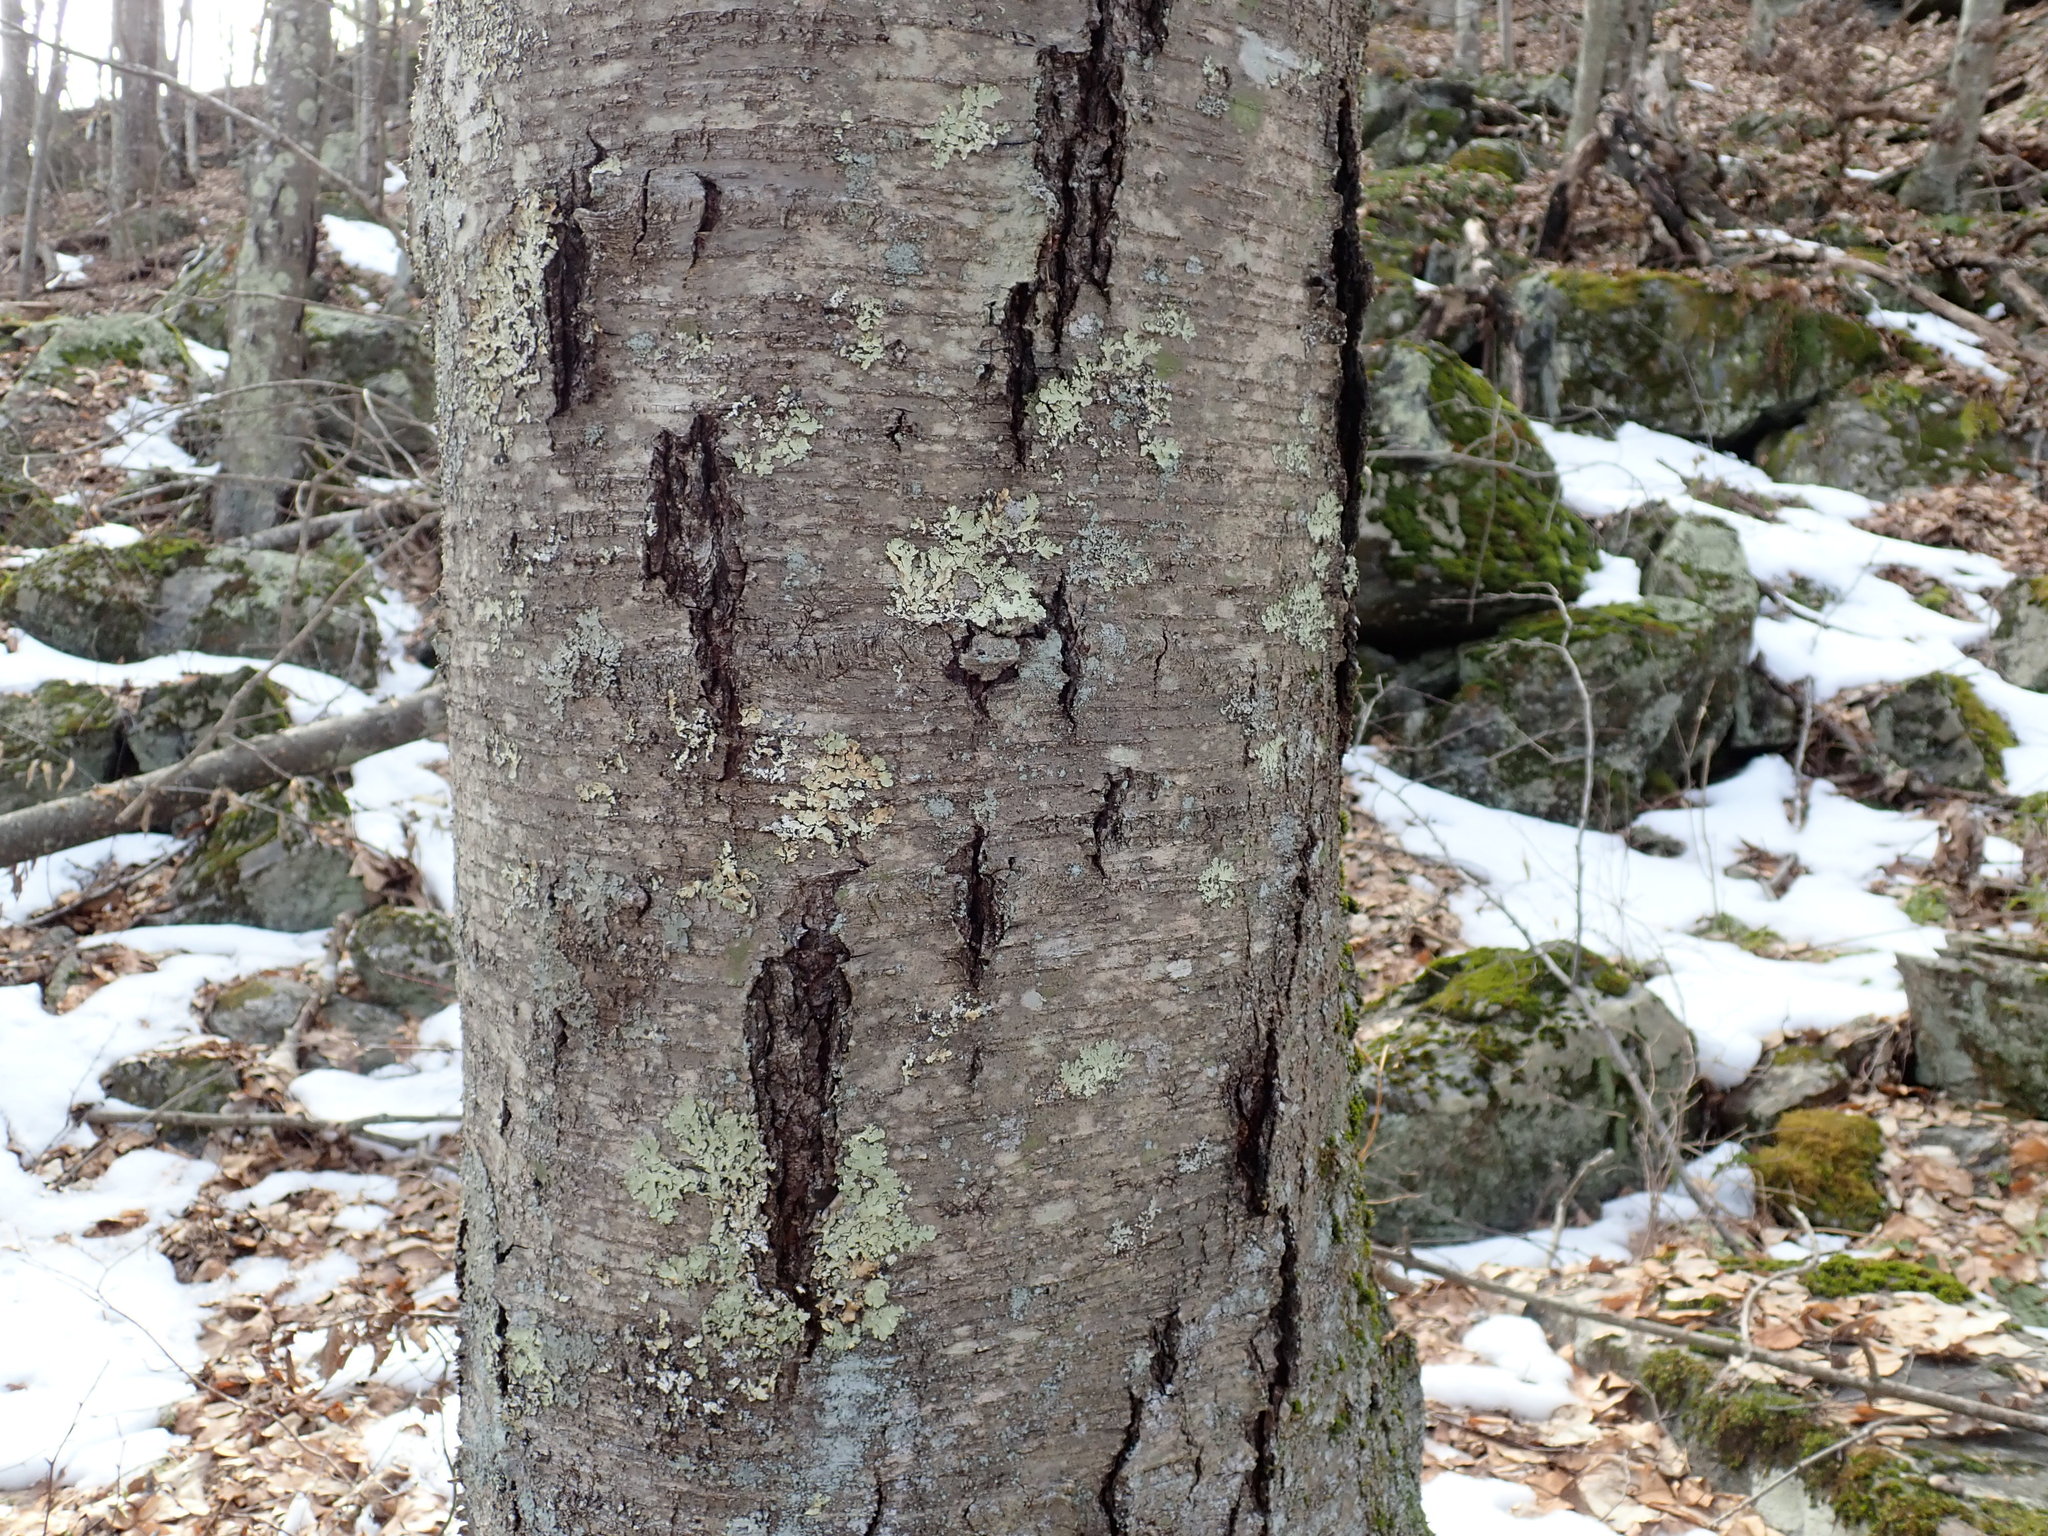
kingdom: Plantae
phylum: Tracheophyta
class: Magnoliopsida
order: Fagales
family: Betulaceae
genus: Betula
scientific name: Betula lenta
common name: Black birch
